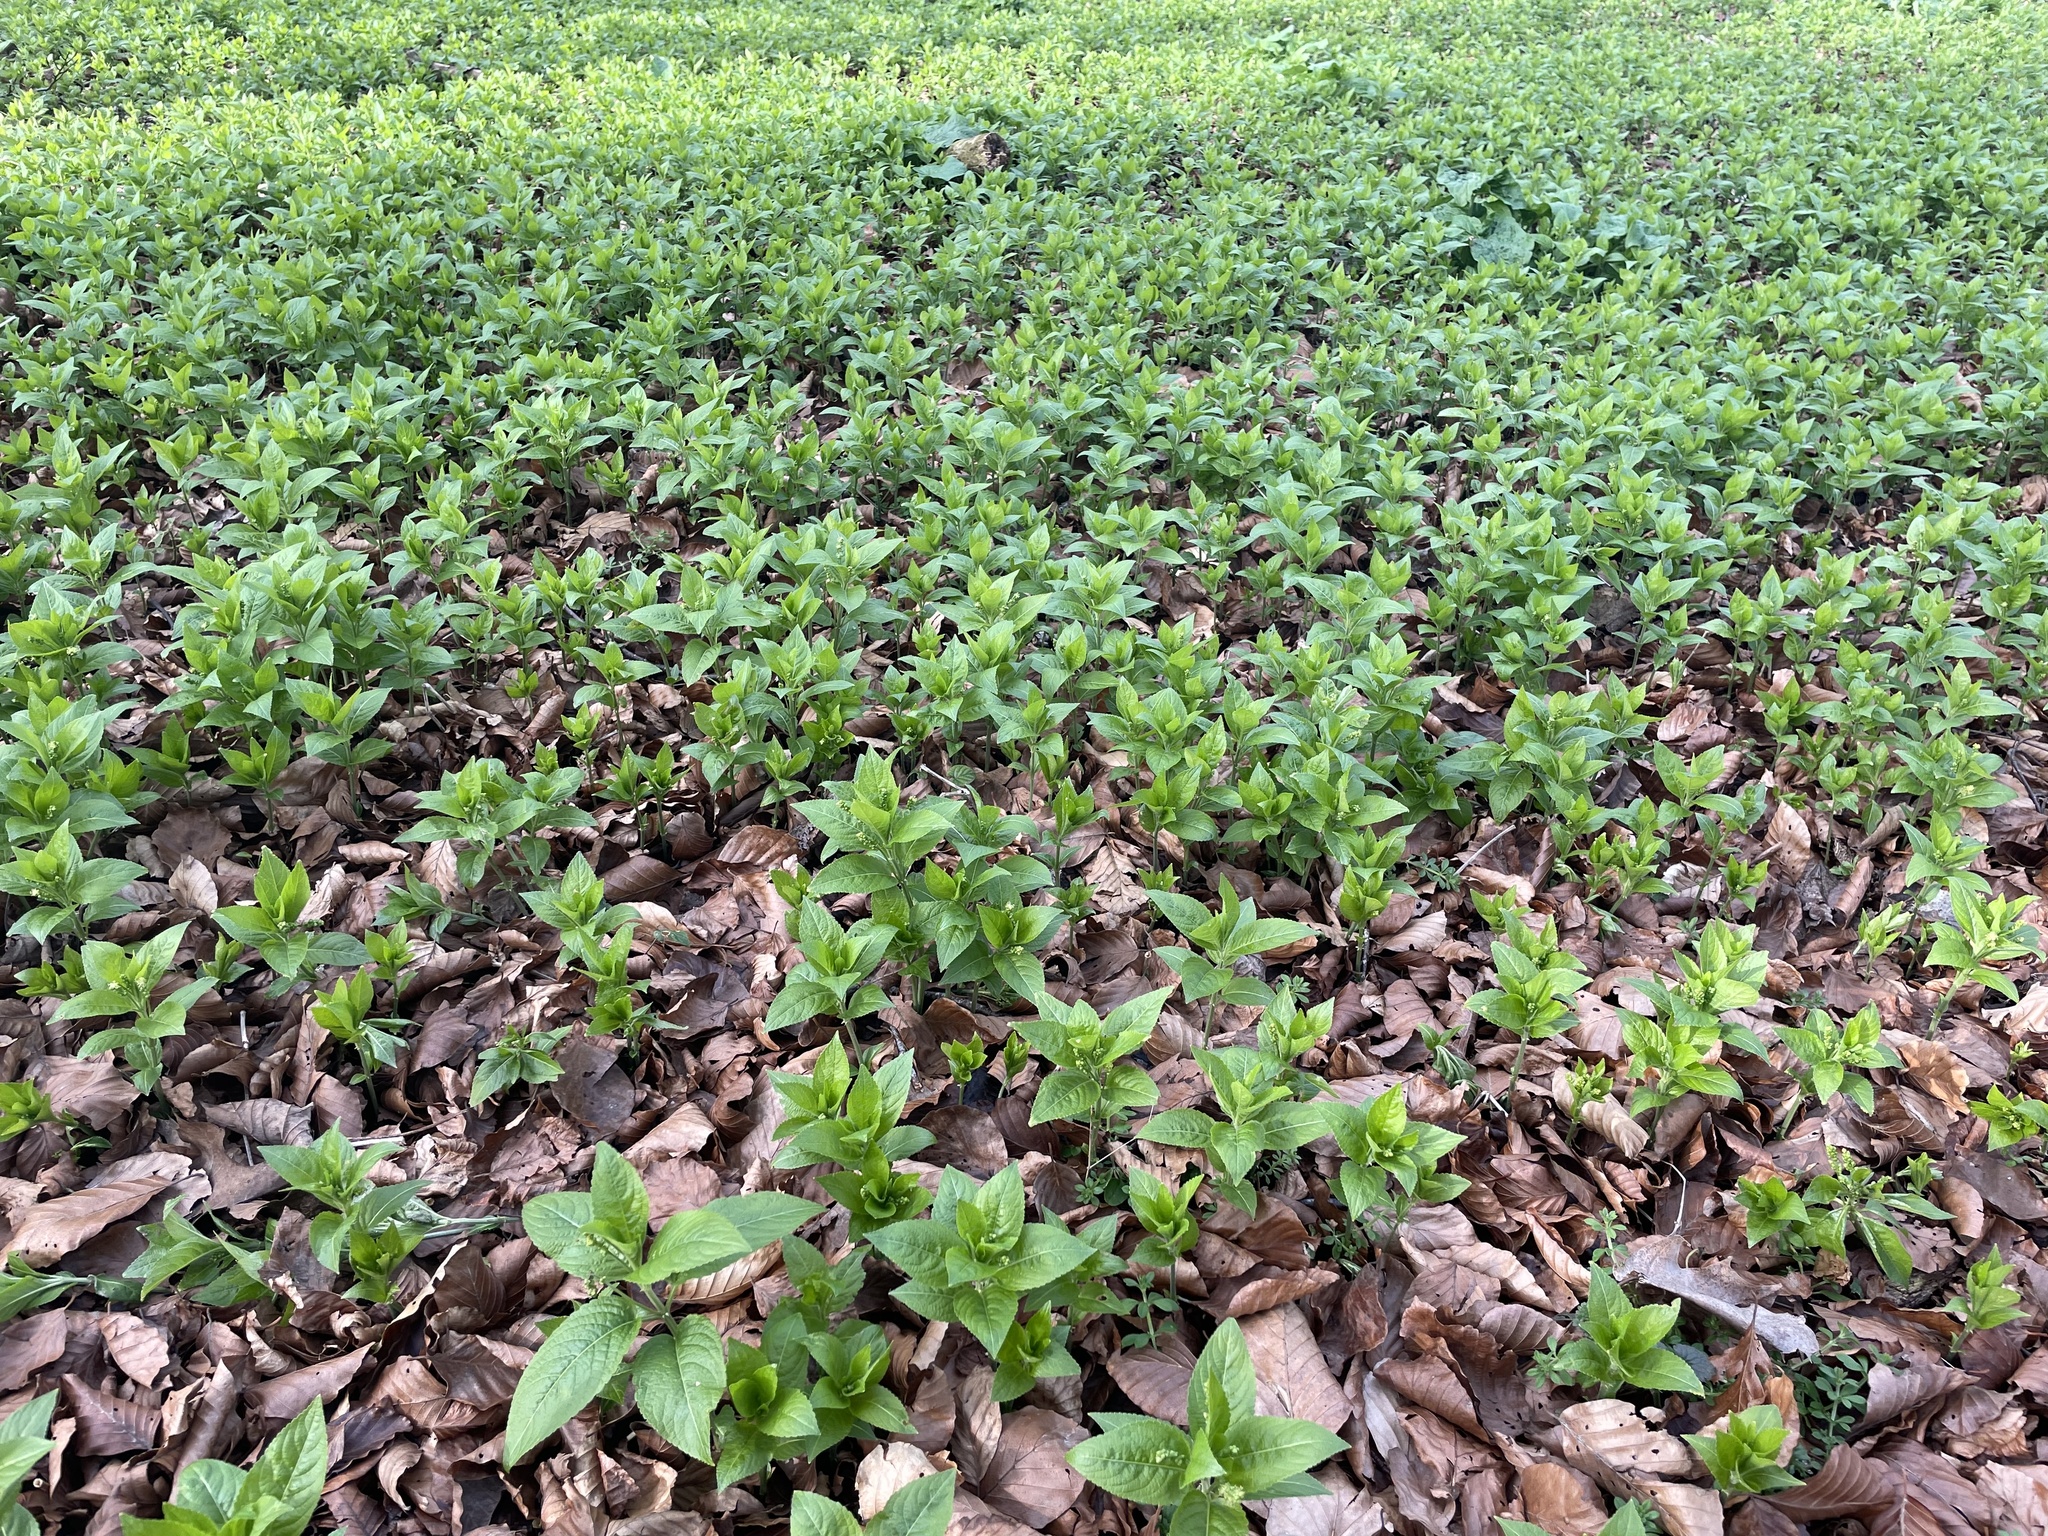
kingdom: Plantae
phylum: Tracheophyta
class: Magnoliopsida
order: Malpighiales
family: Euphorbiaceae
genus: Mercurialis
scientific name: Mercurialis perennis
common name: Dog mercury
